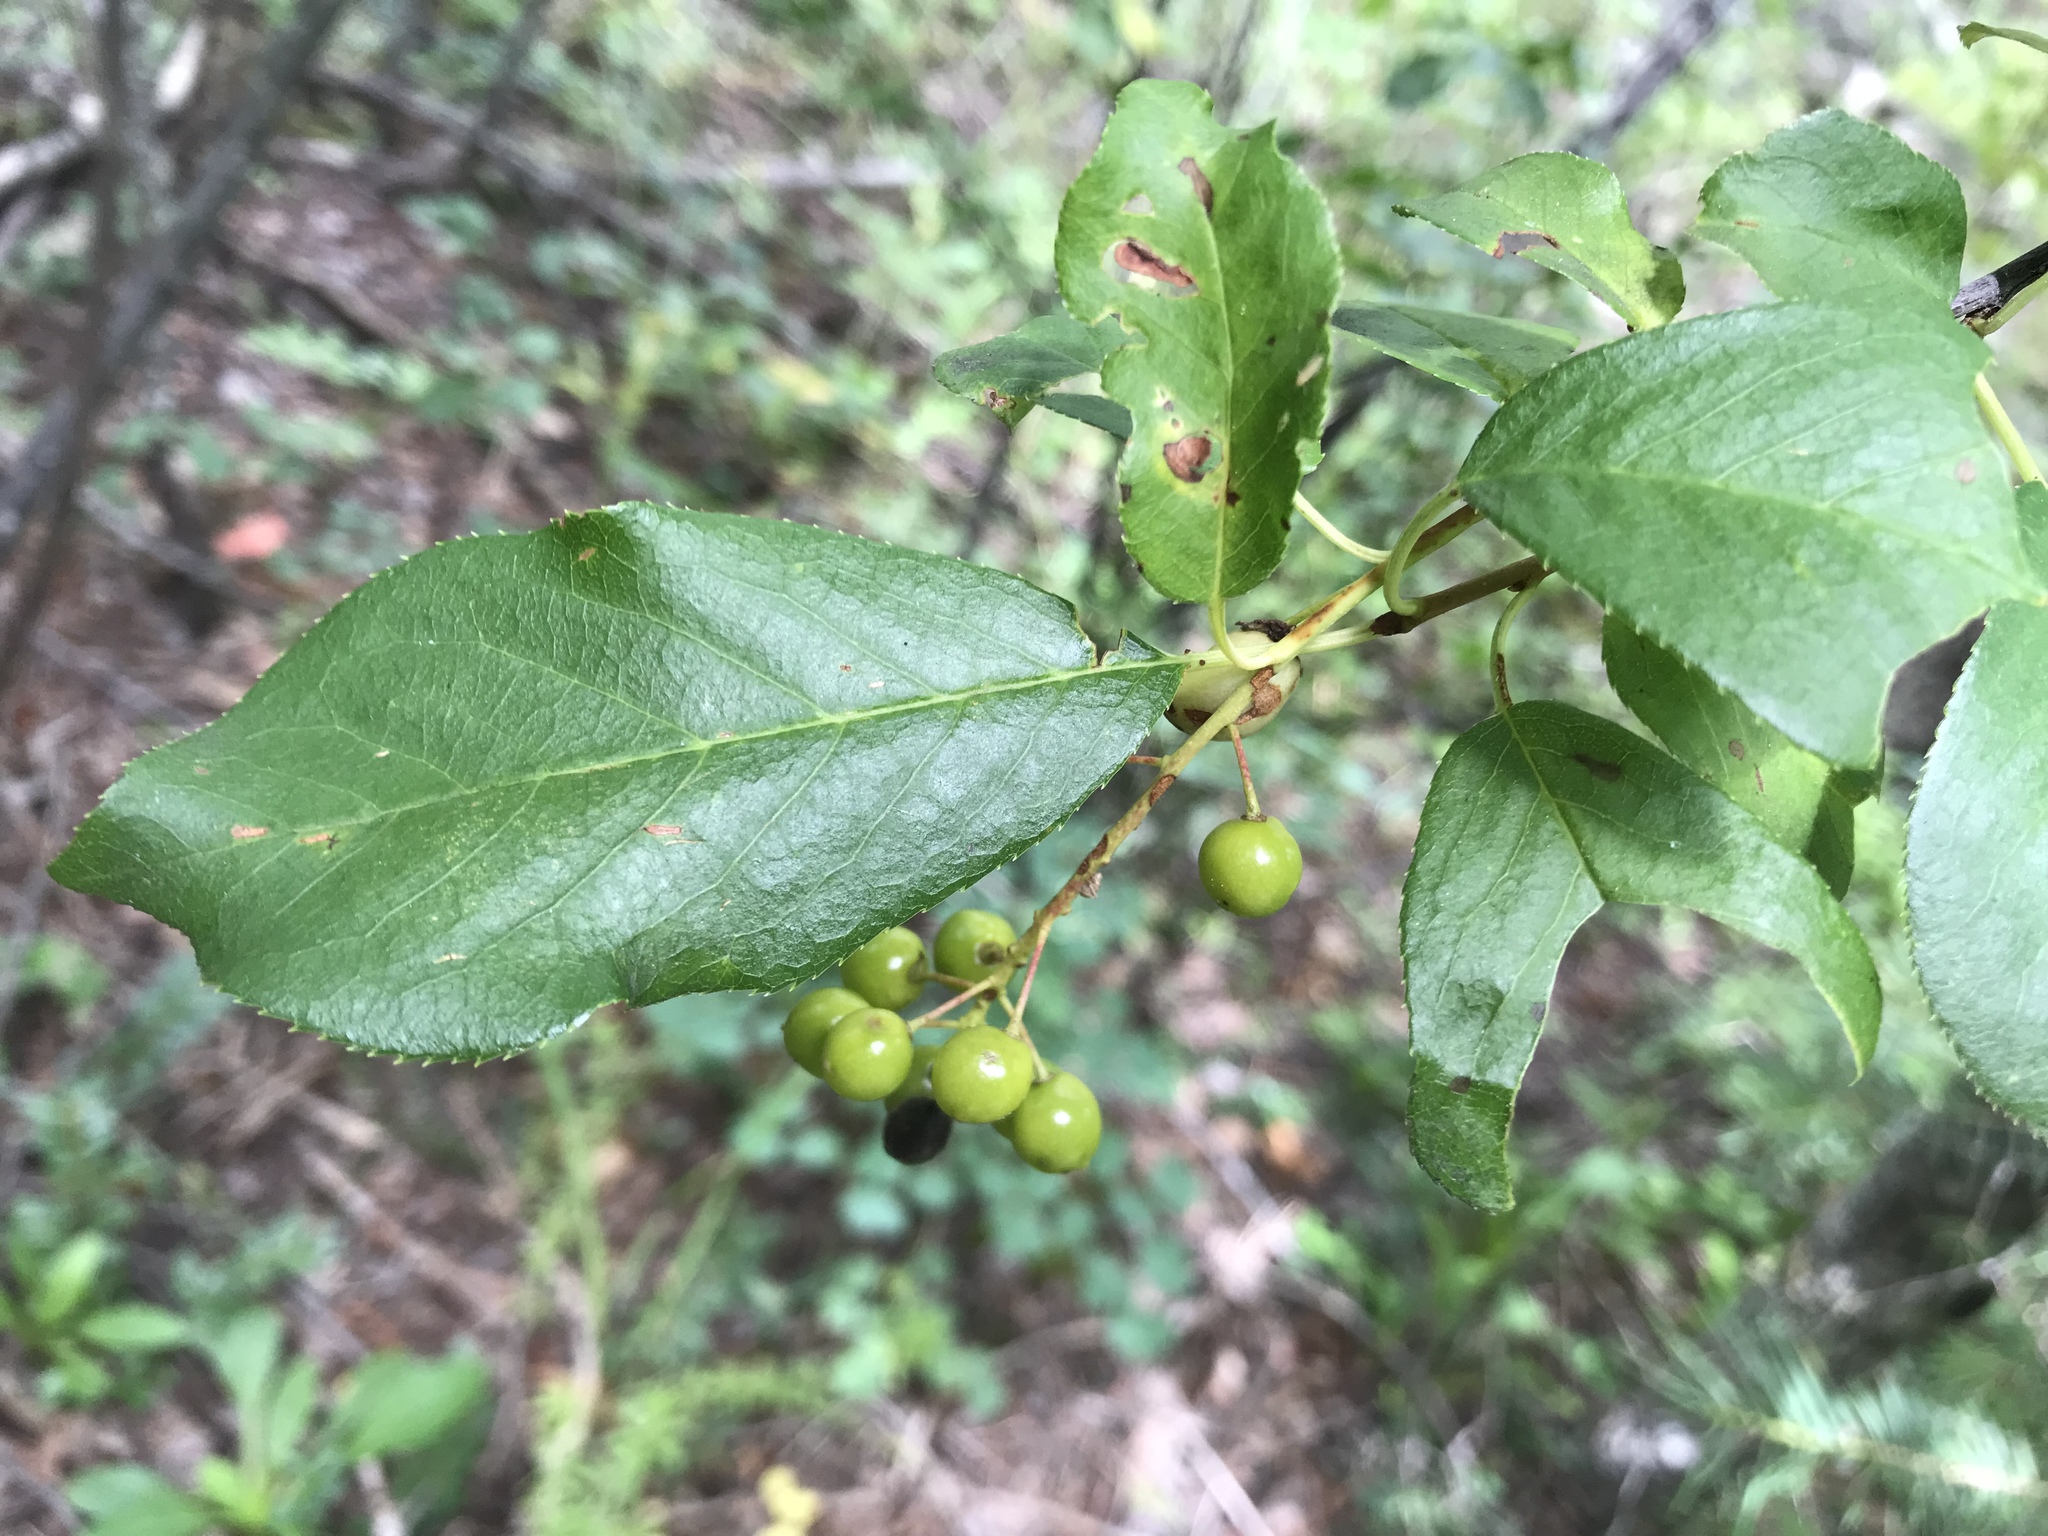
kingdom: Plantae
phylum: Tracheophyta
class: Magnoliopsida
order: Rosales
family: Rosaceae
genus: Prunus
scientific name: Prunus virginiana
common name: Chokecherry
